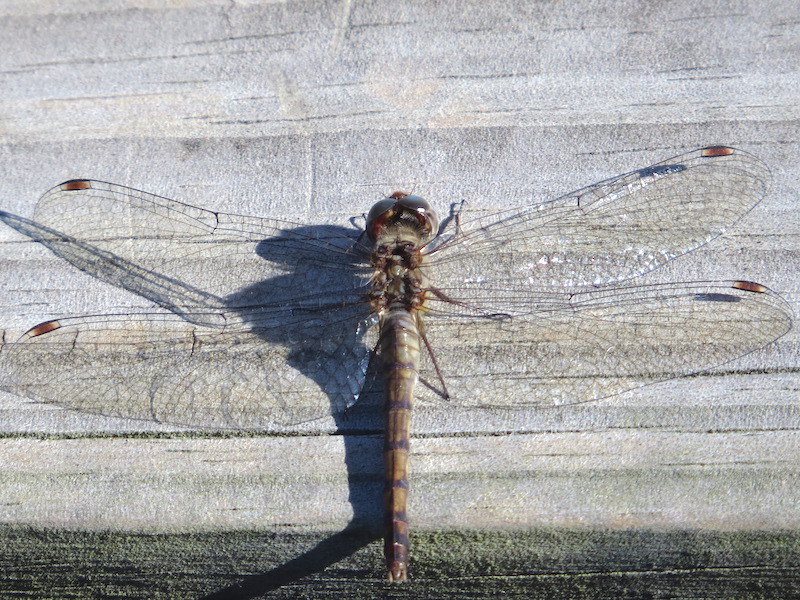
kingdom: Animalia
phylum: Arthropoda
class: Insecta
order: Odonata
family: Libellulidae
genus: Sympetrum
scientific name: Sympetrum ambiguum
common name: Blue-faced meadowhawk
